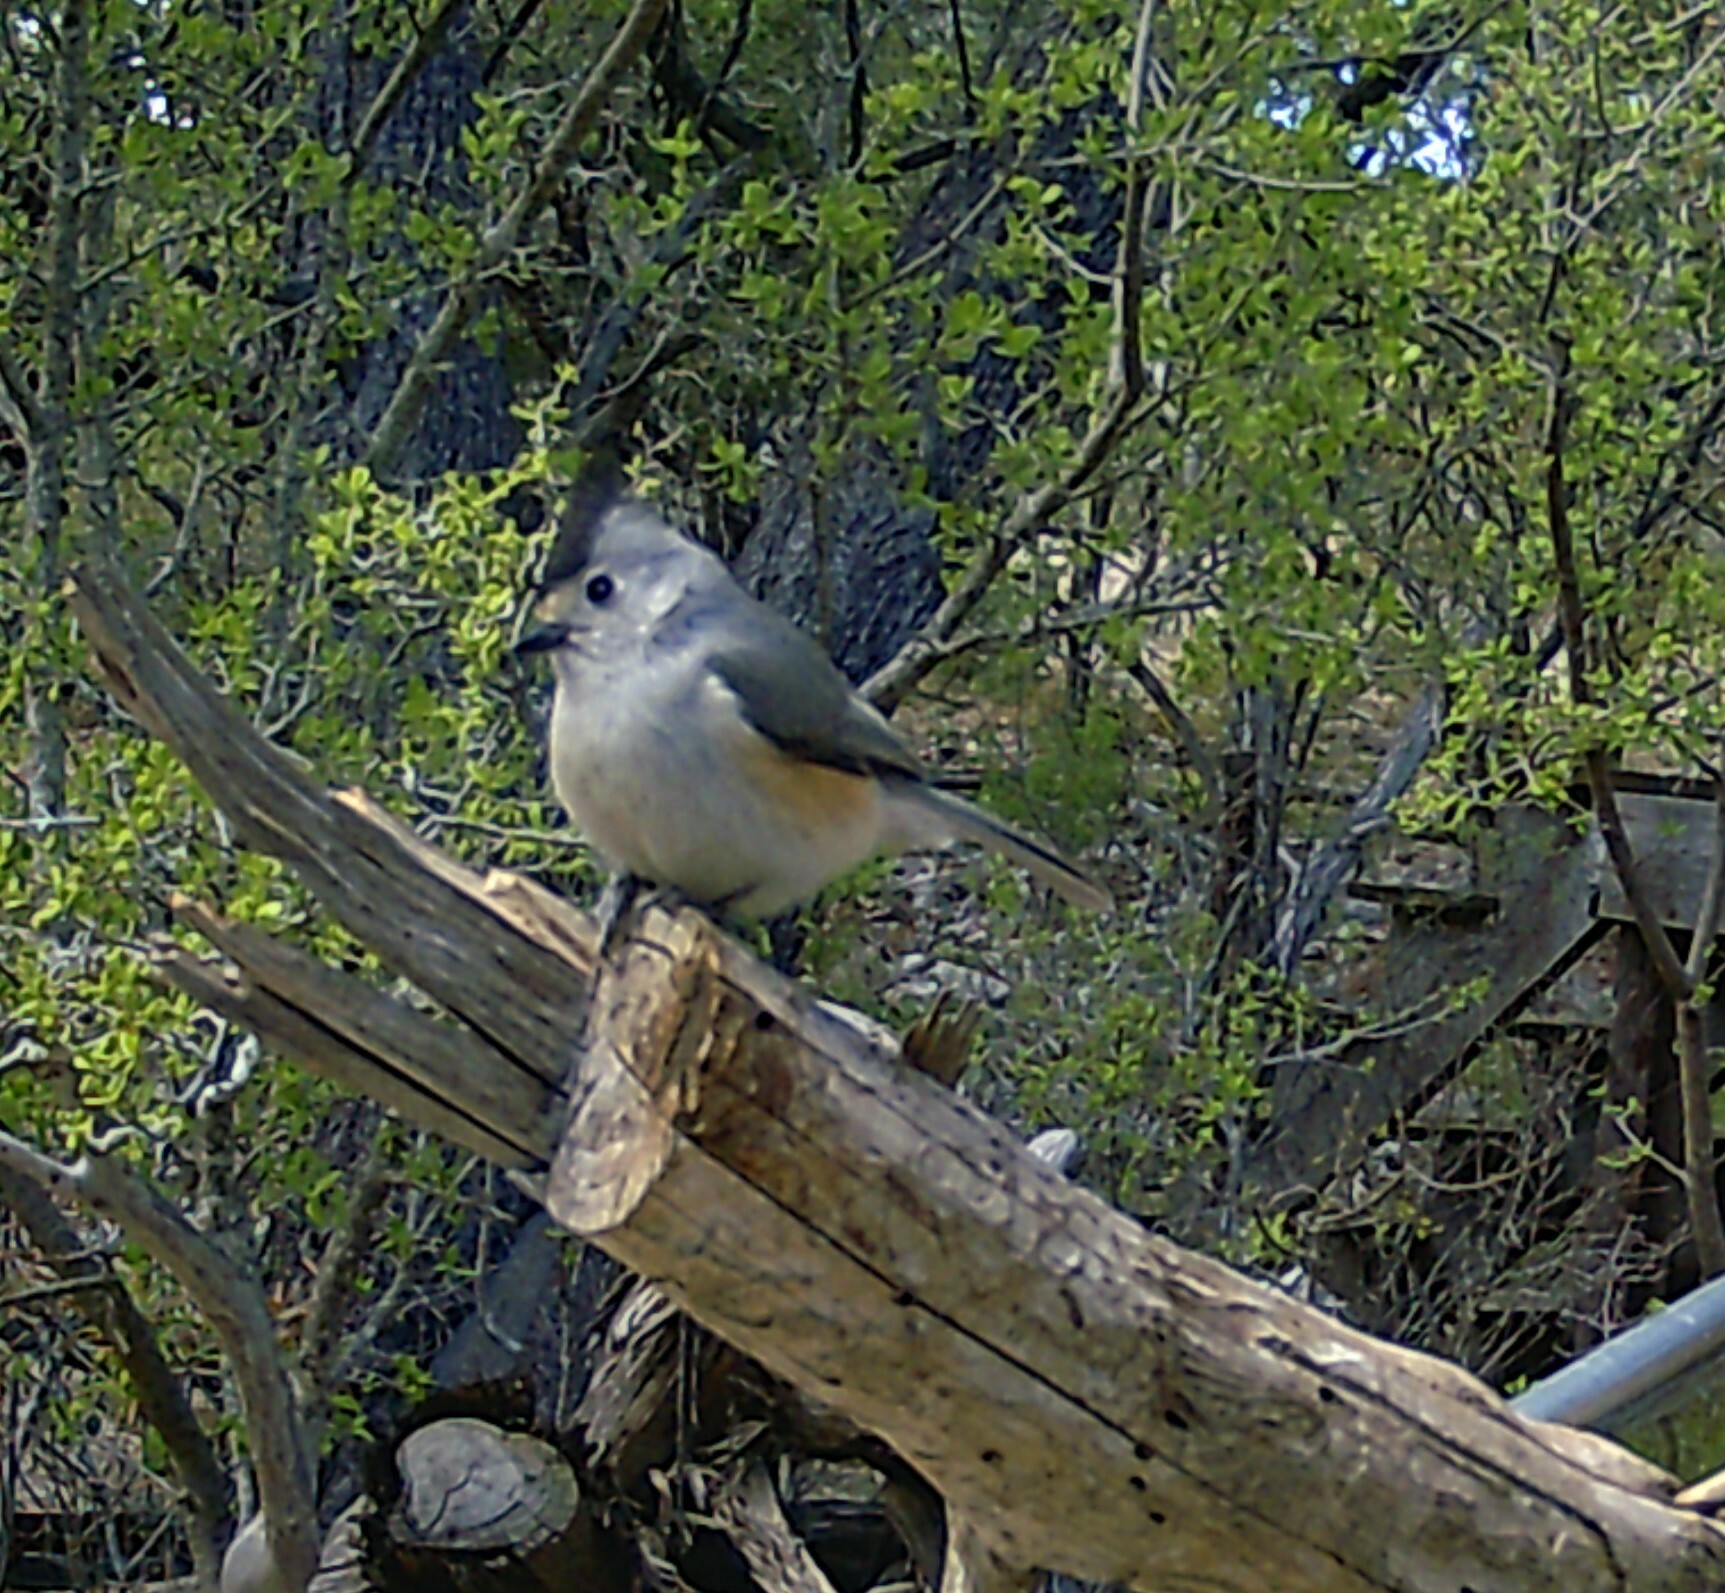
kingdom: Animalia
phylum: Chordata
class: Aves
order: Passeriformes
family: Paridae
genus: Baeolophus
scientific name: Baeolophus atricristatus
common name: Black-crested titmouse
